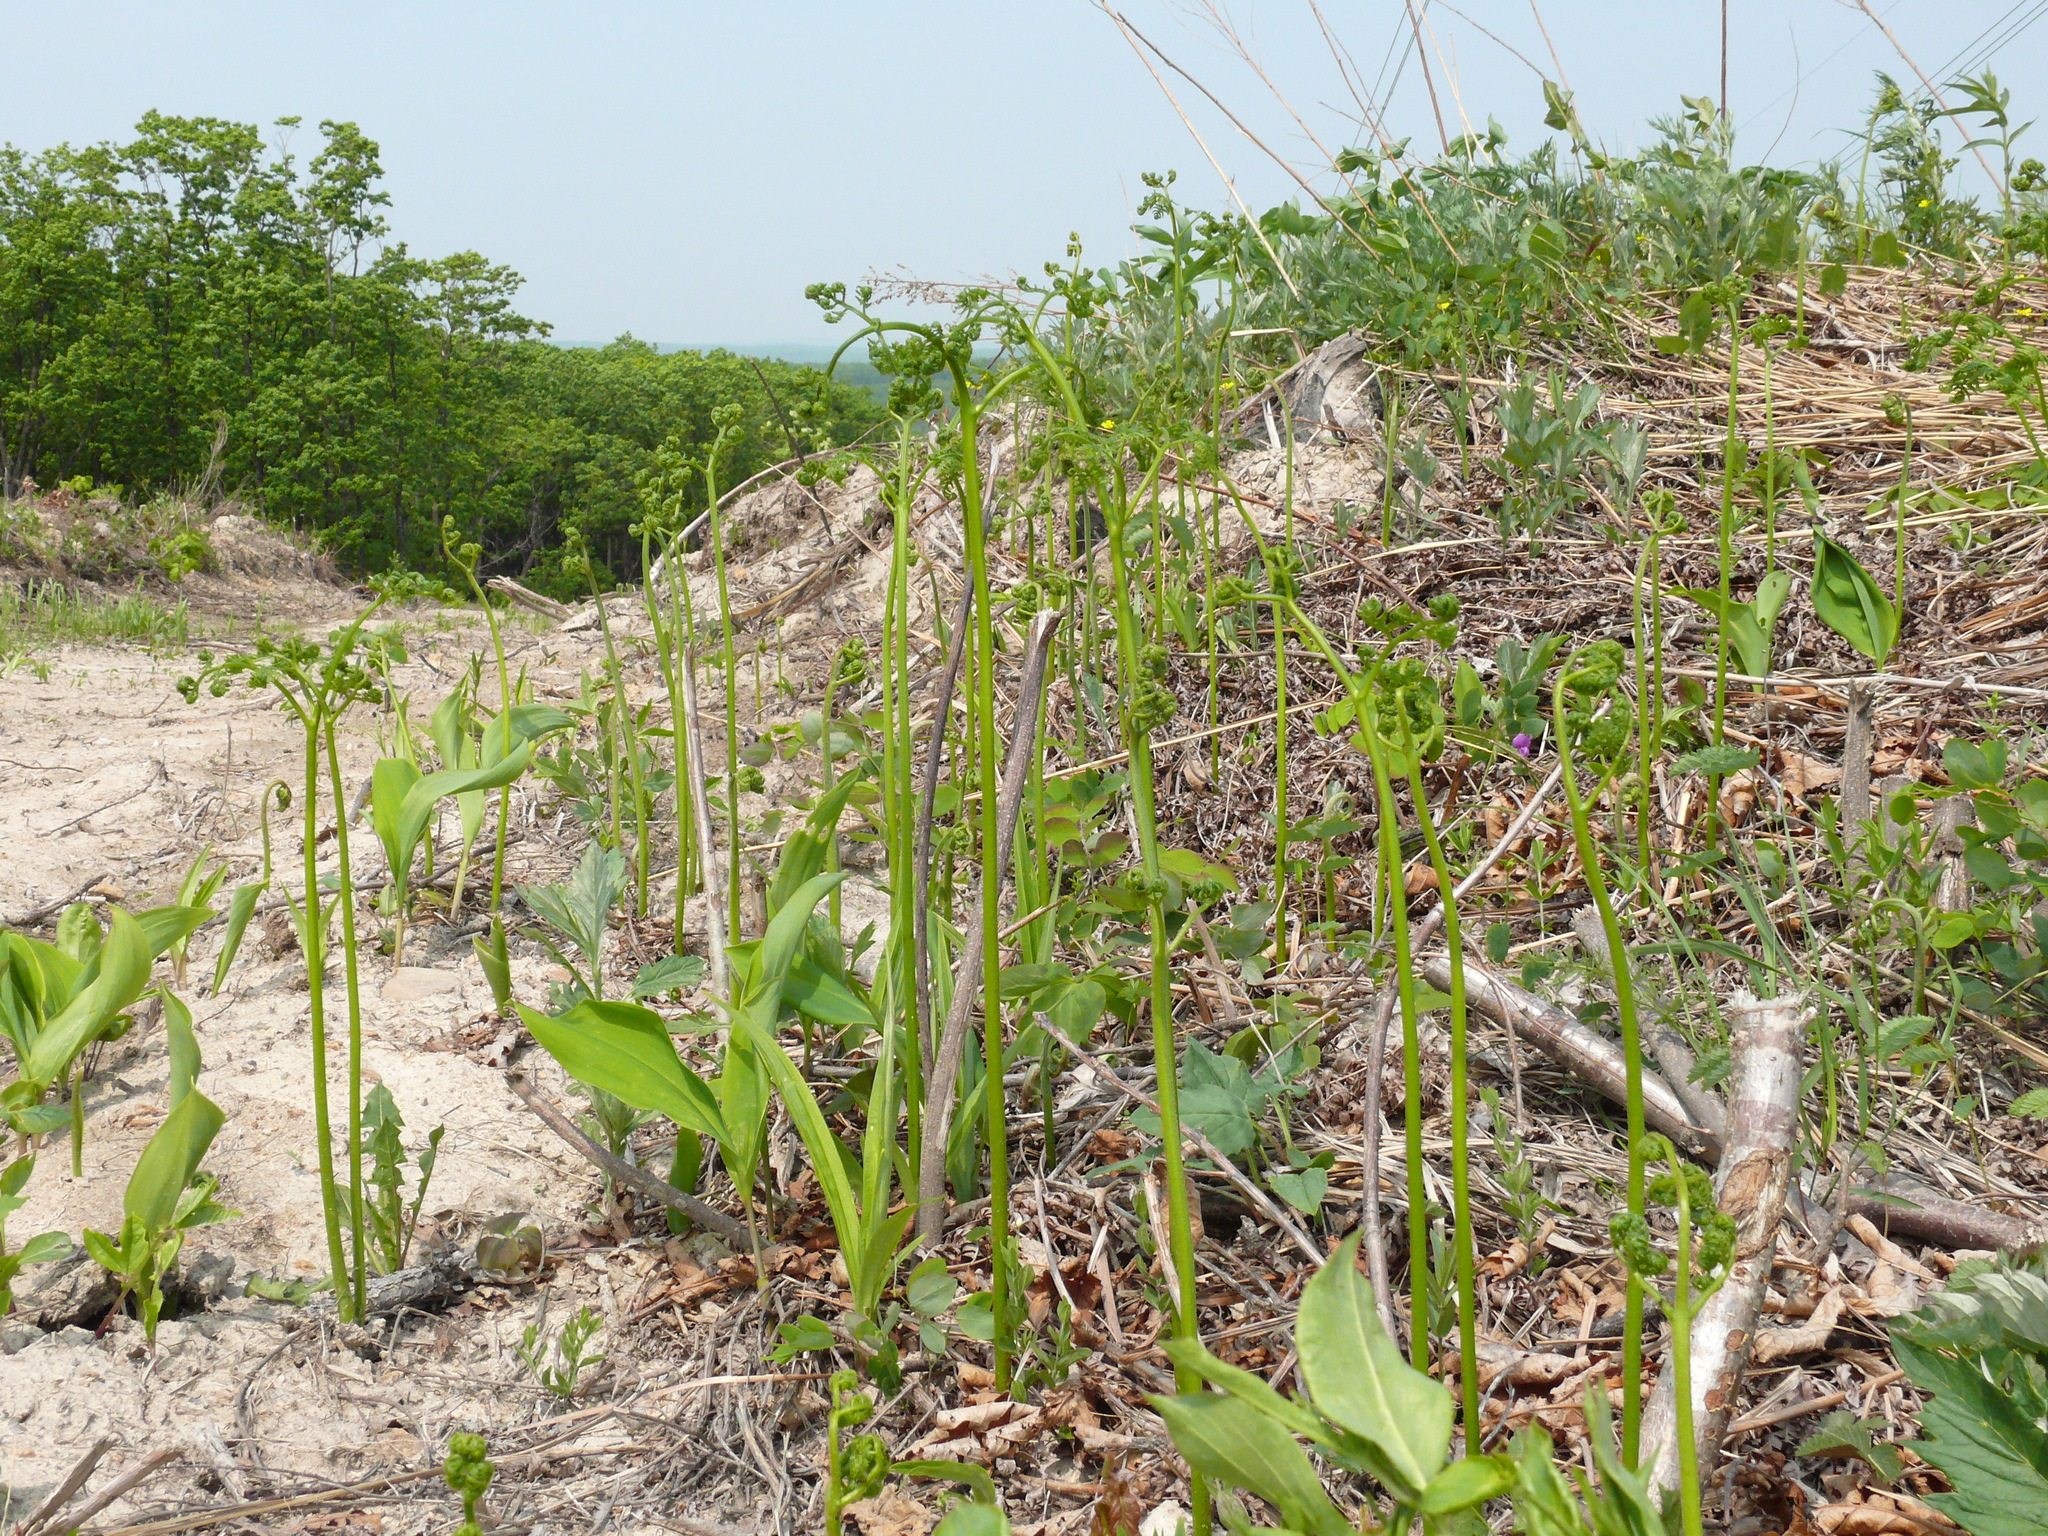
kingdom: Plantae
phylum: Tracheophyta
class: Polypodiopsida
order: Polypodiales
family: Dennstaedtiaceae
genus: Pteridium
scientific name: Pteridium aquilinum
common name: Bracken
